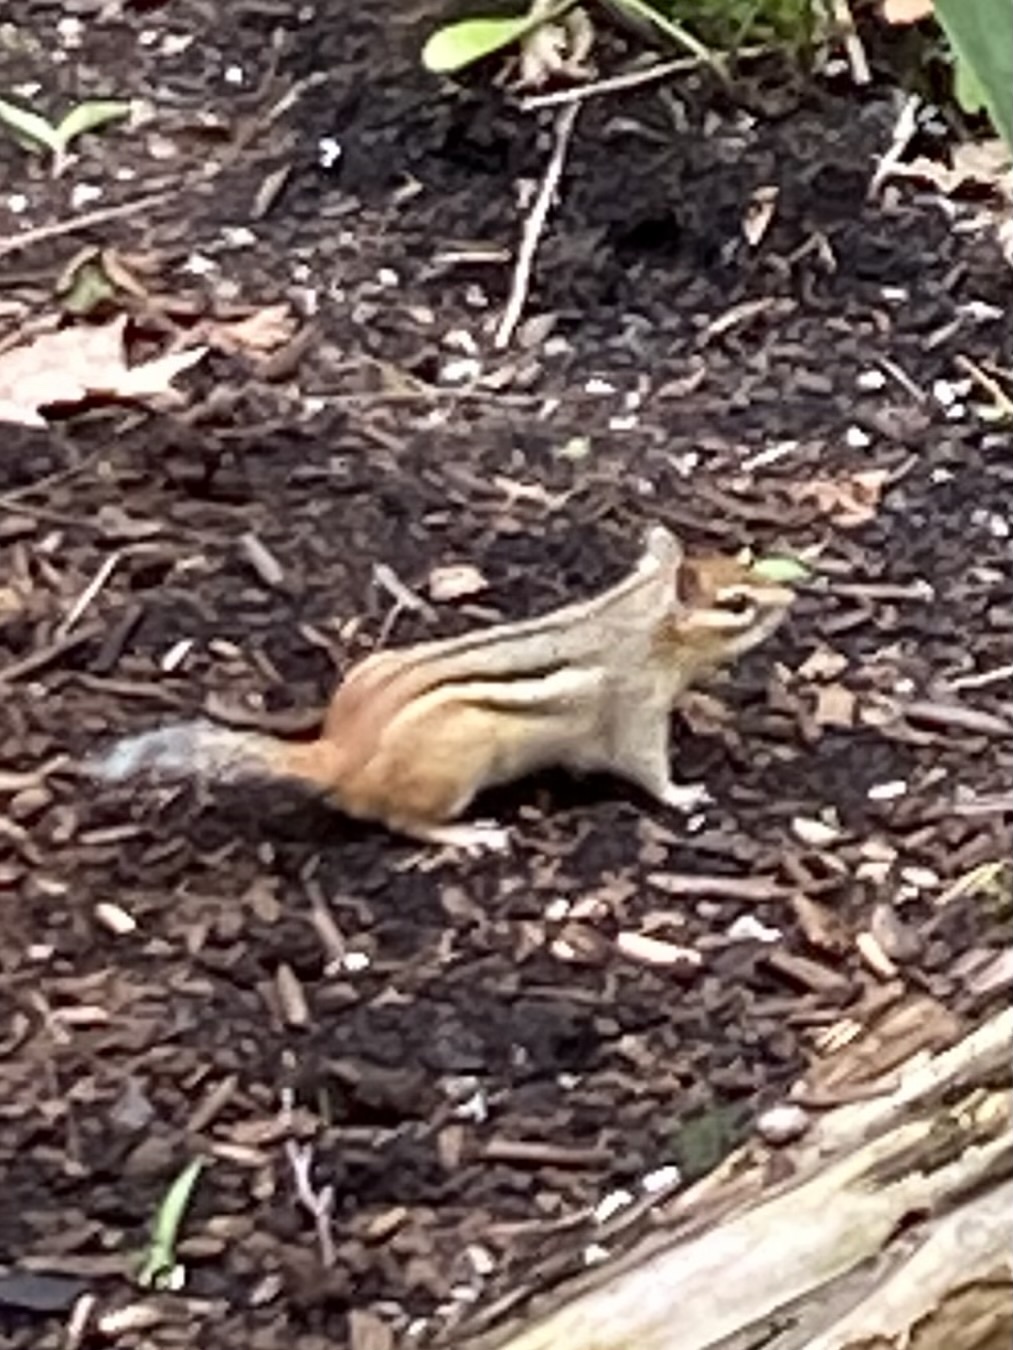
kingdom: Animalia
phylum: Chordata
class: Mammalia
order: Rodentia
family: Sciuridae
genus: Tamias
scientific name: Tamias striatus
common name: Eastern chipmunk
